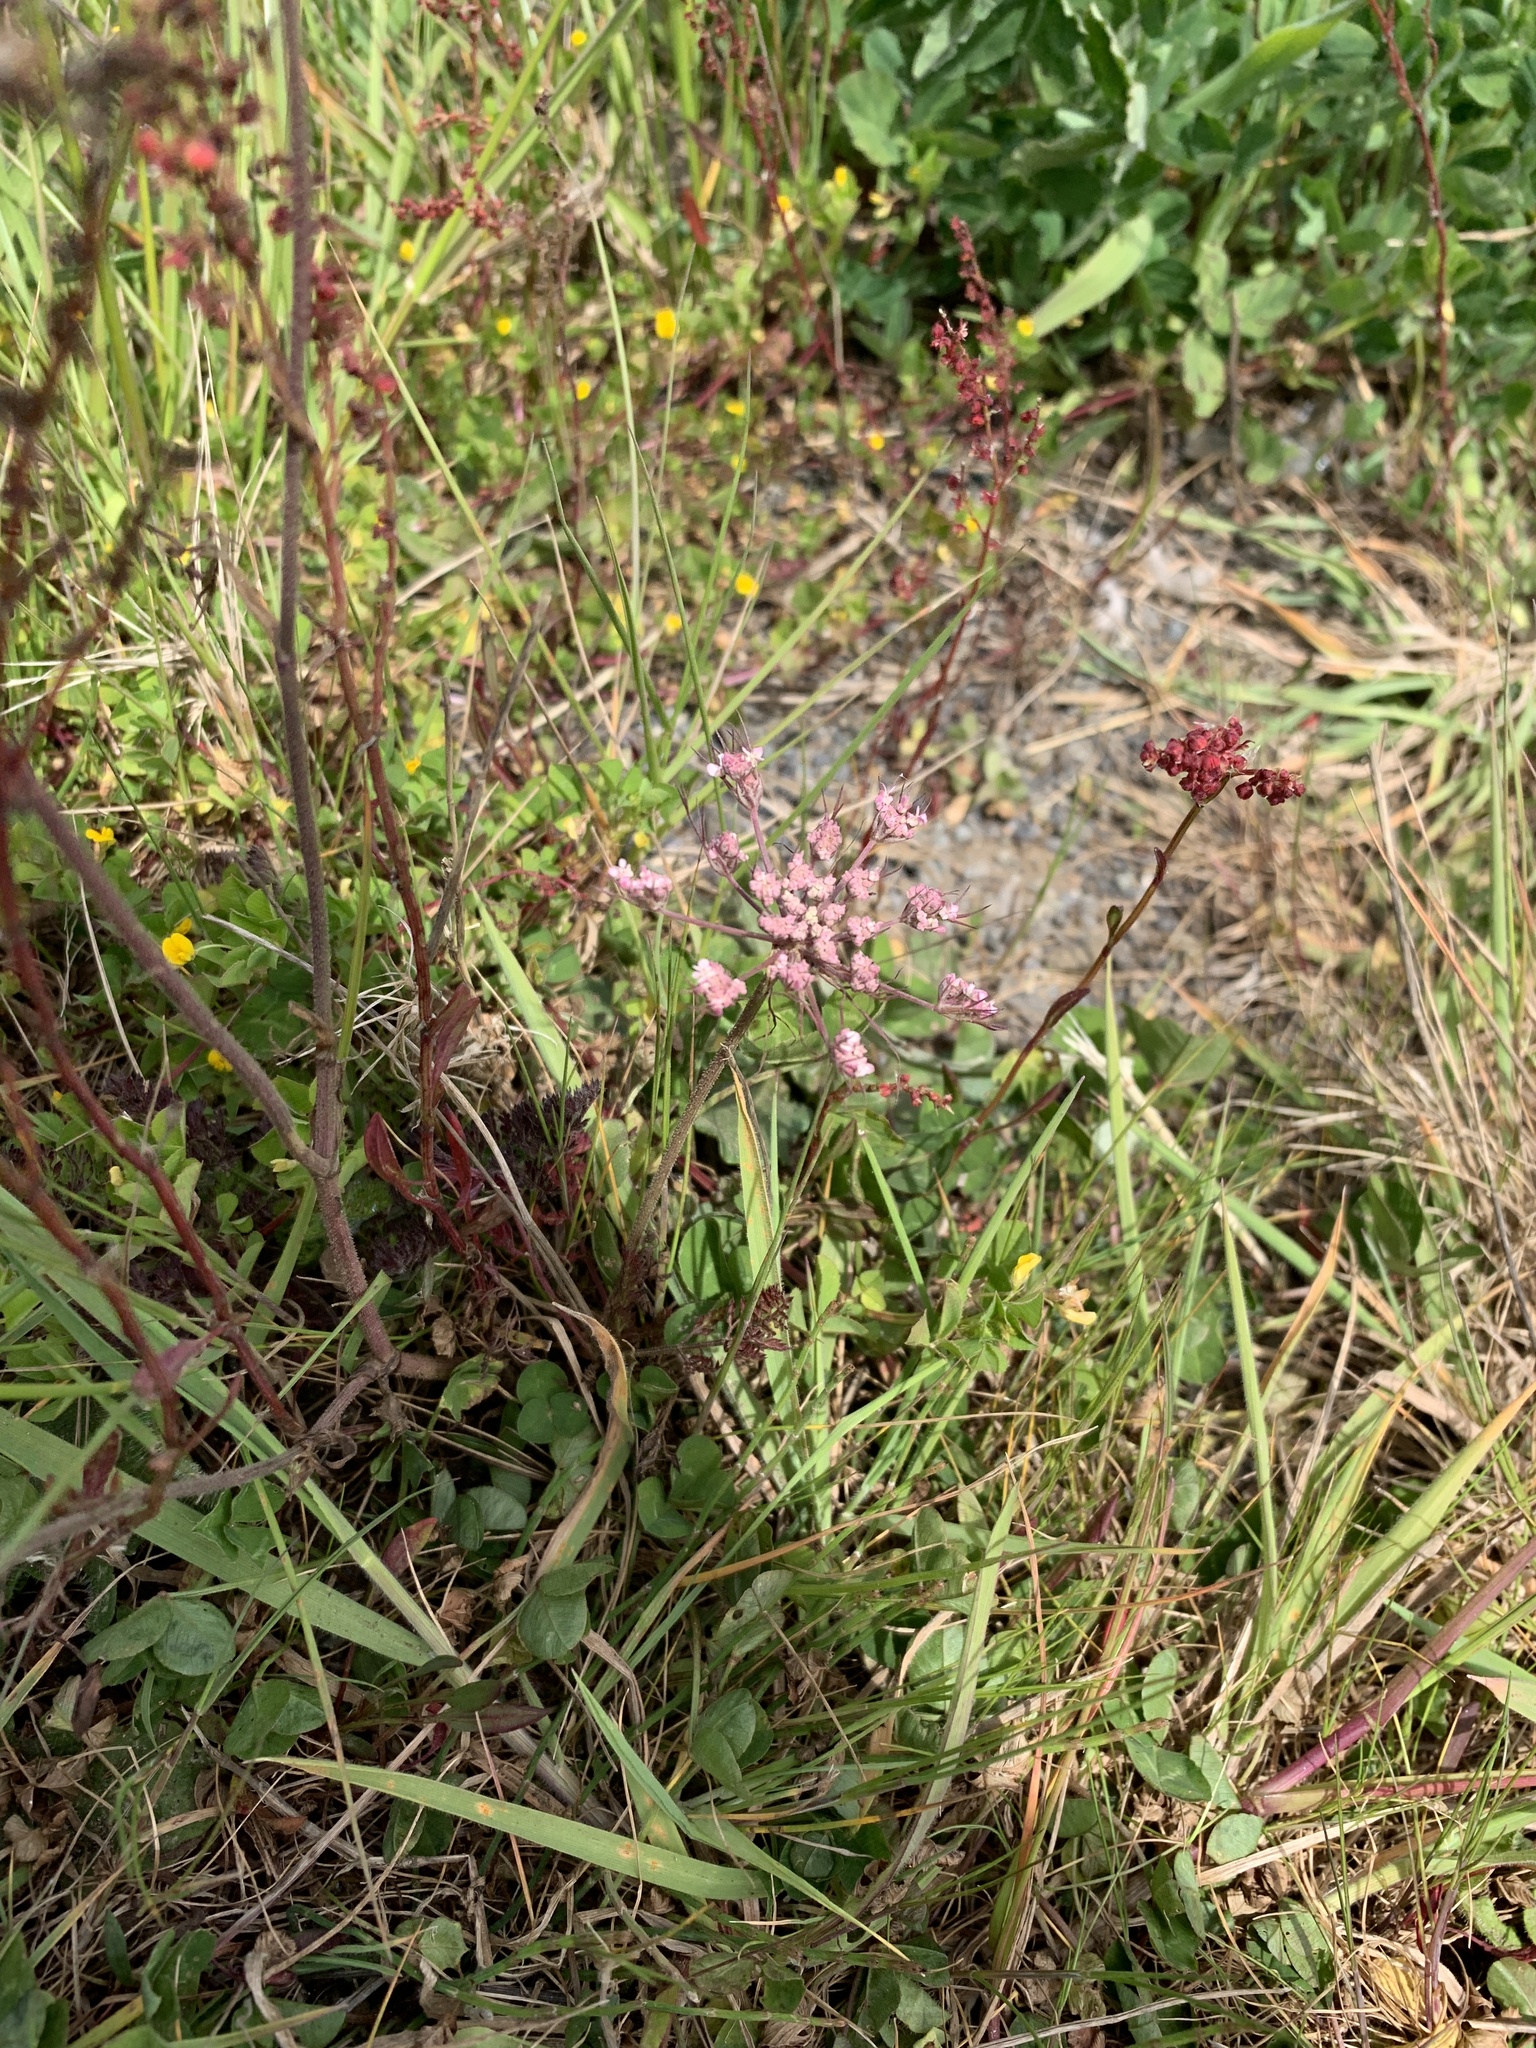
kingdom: Plantae
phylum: Tracheophyta
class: Magnoliopsida
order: Apiales
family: Apiaceae
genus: Daucus
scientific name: Daucus carota
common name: Wild carrot
